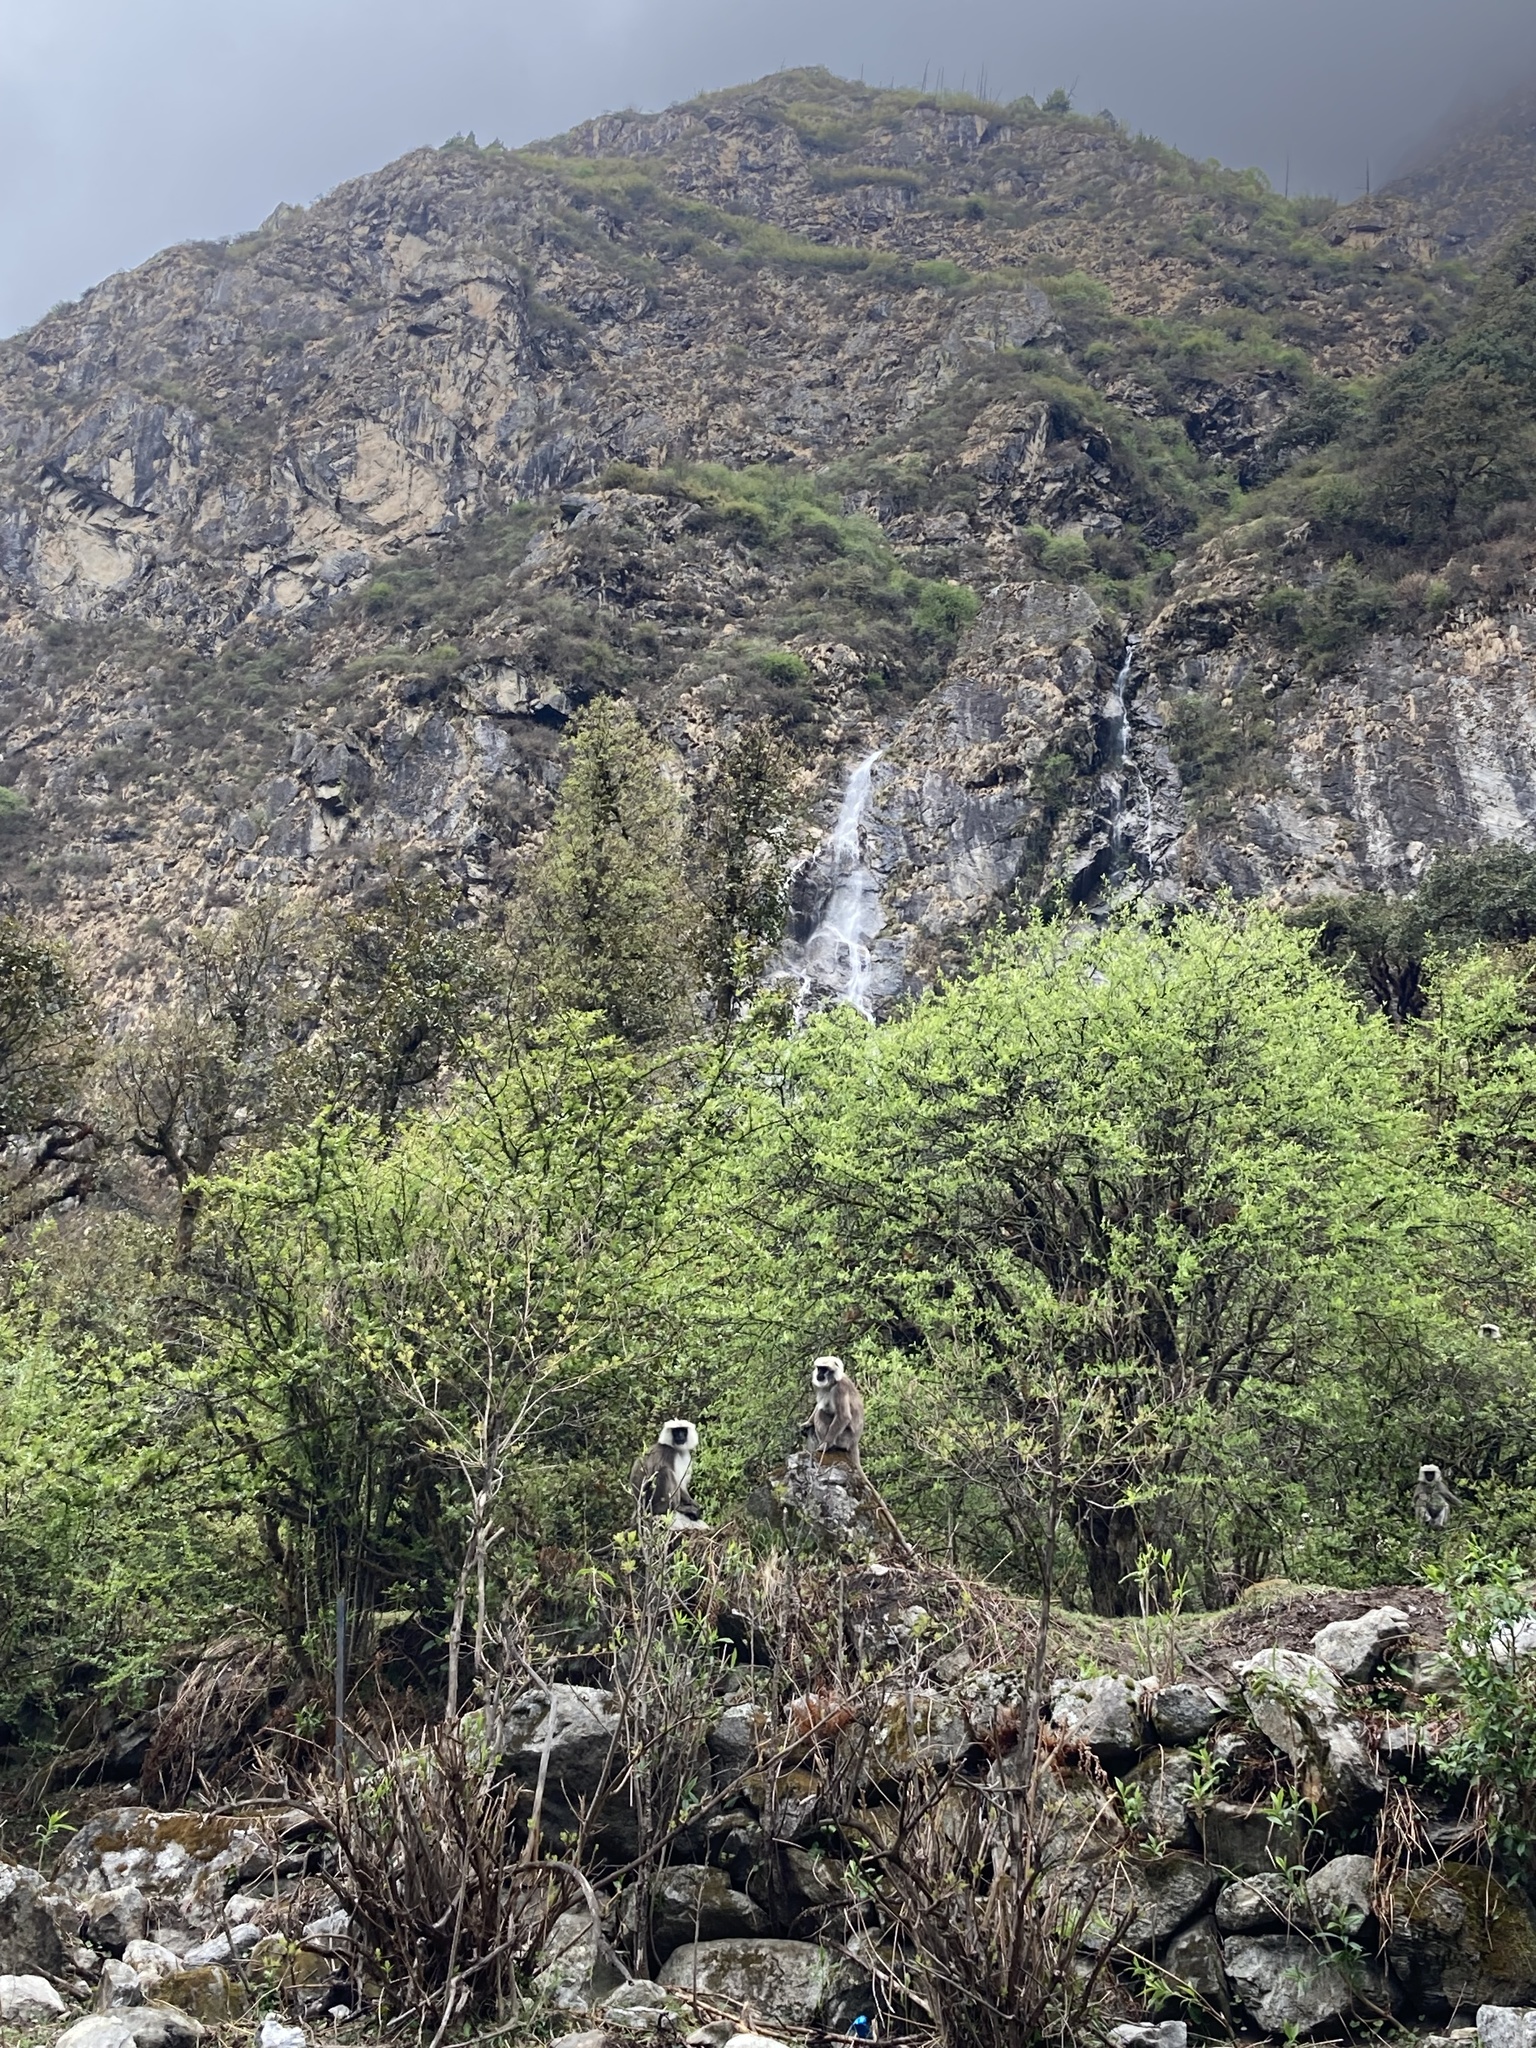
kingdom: Animalia
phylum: Chordata
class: Mammalia
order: Primates
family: Cercopithecidae
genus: Semnopithecus
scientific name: Semnopithecus schistaceus
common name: Nepal gray langur
